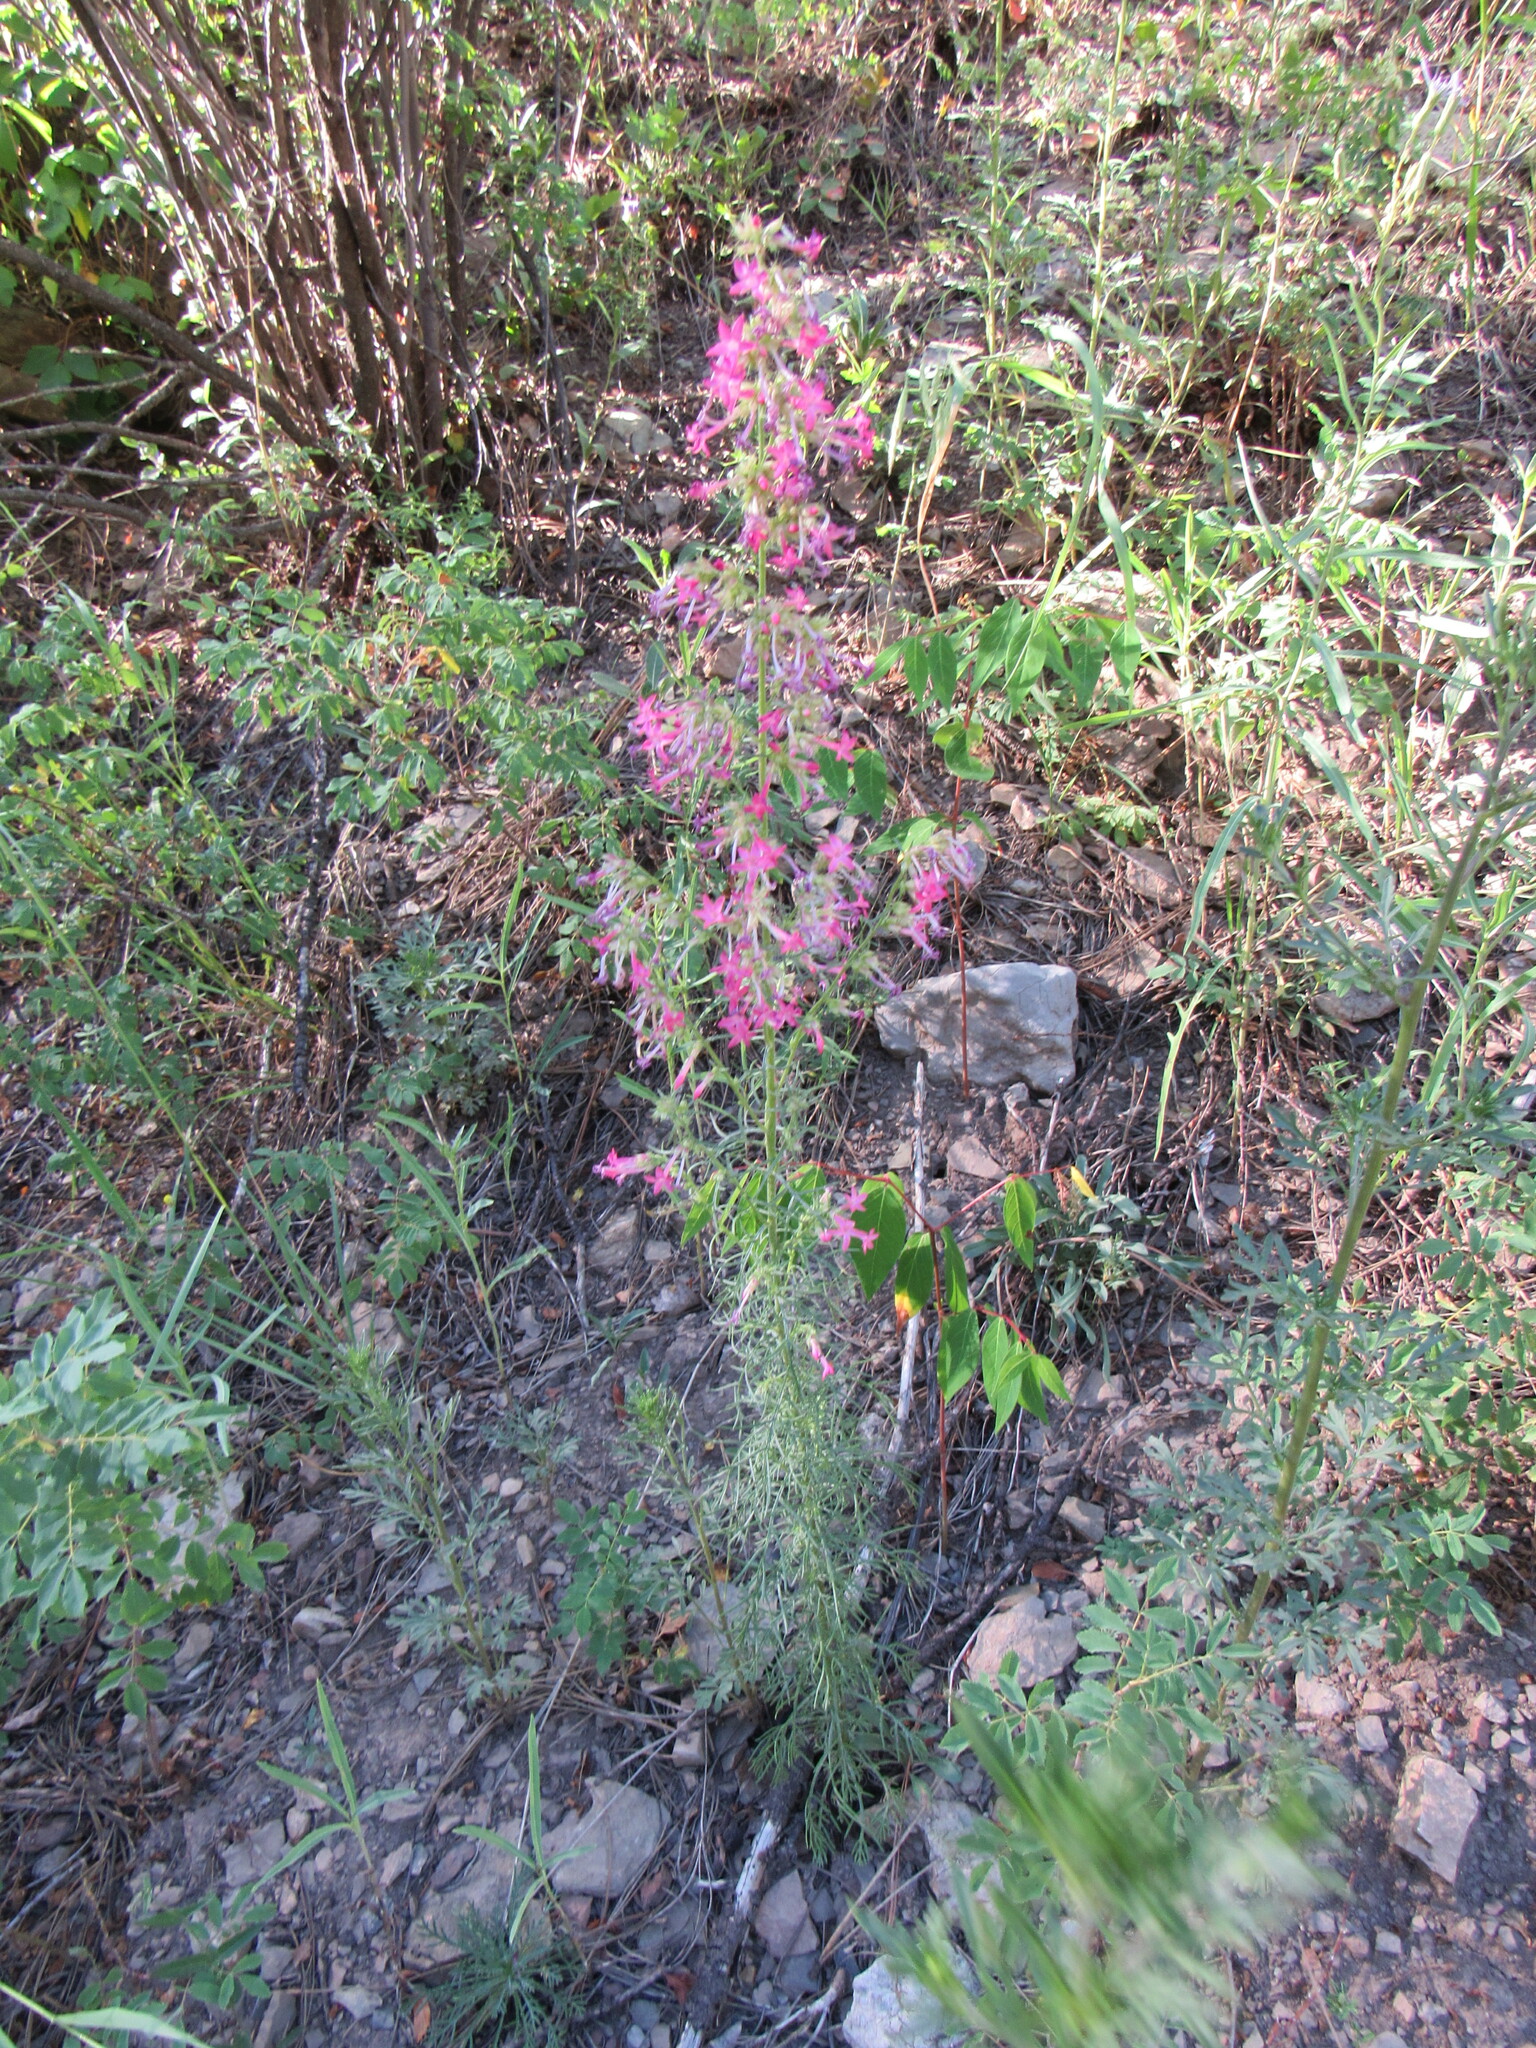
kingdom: Plantae
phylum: Tracheophyta
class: Magnoliopsida
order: Ericales
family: Polemoniaceae
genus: Ipomopsis
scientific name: Ipomopsis sancti-spiritus
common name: Holy ghost ipomopsis
